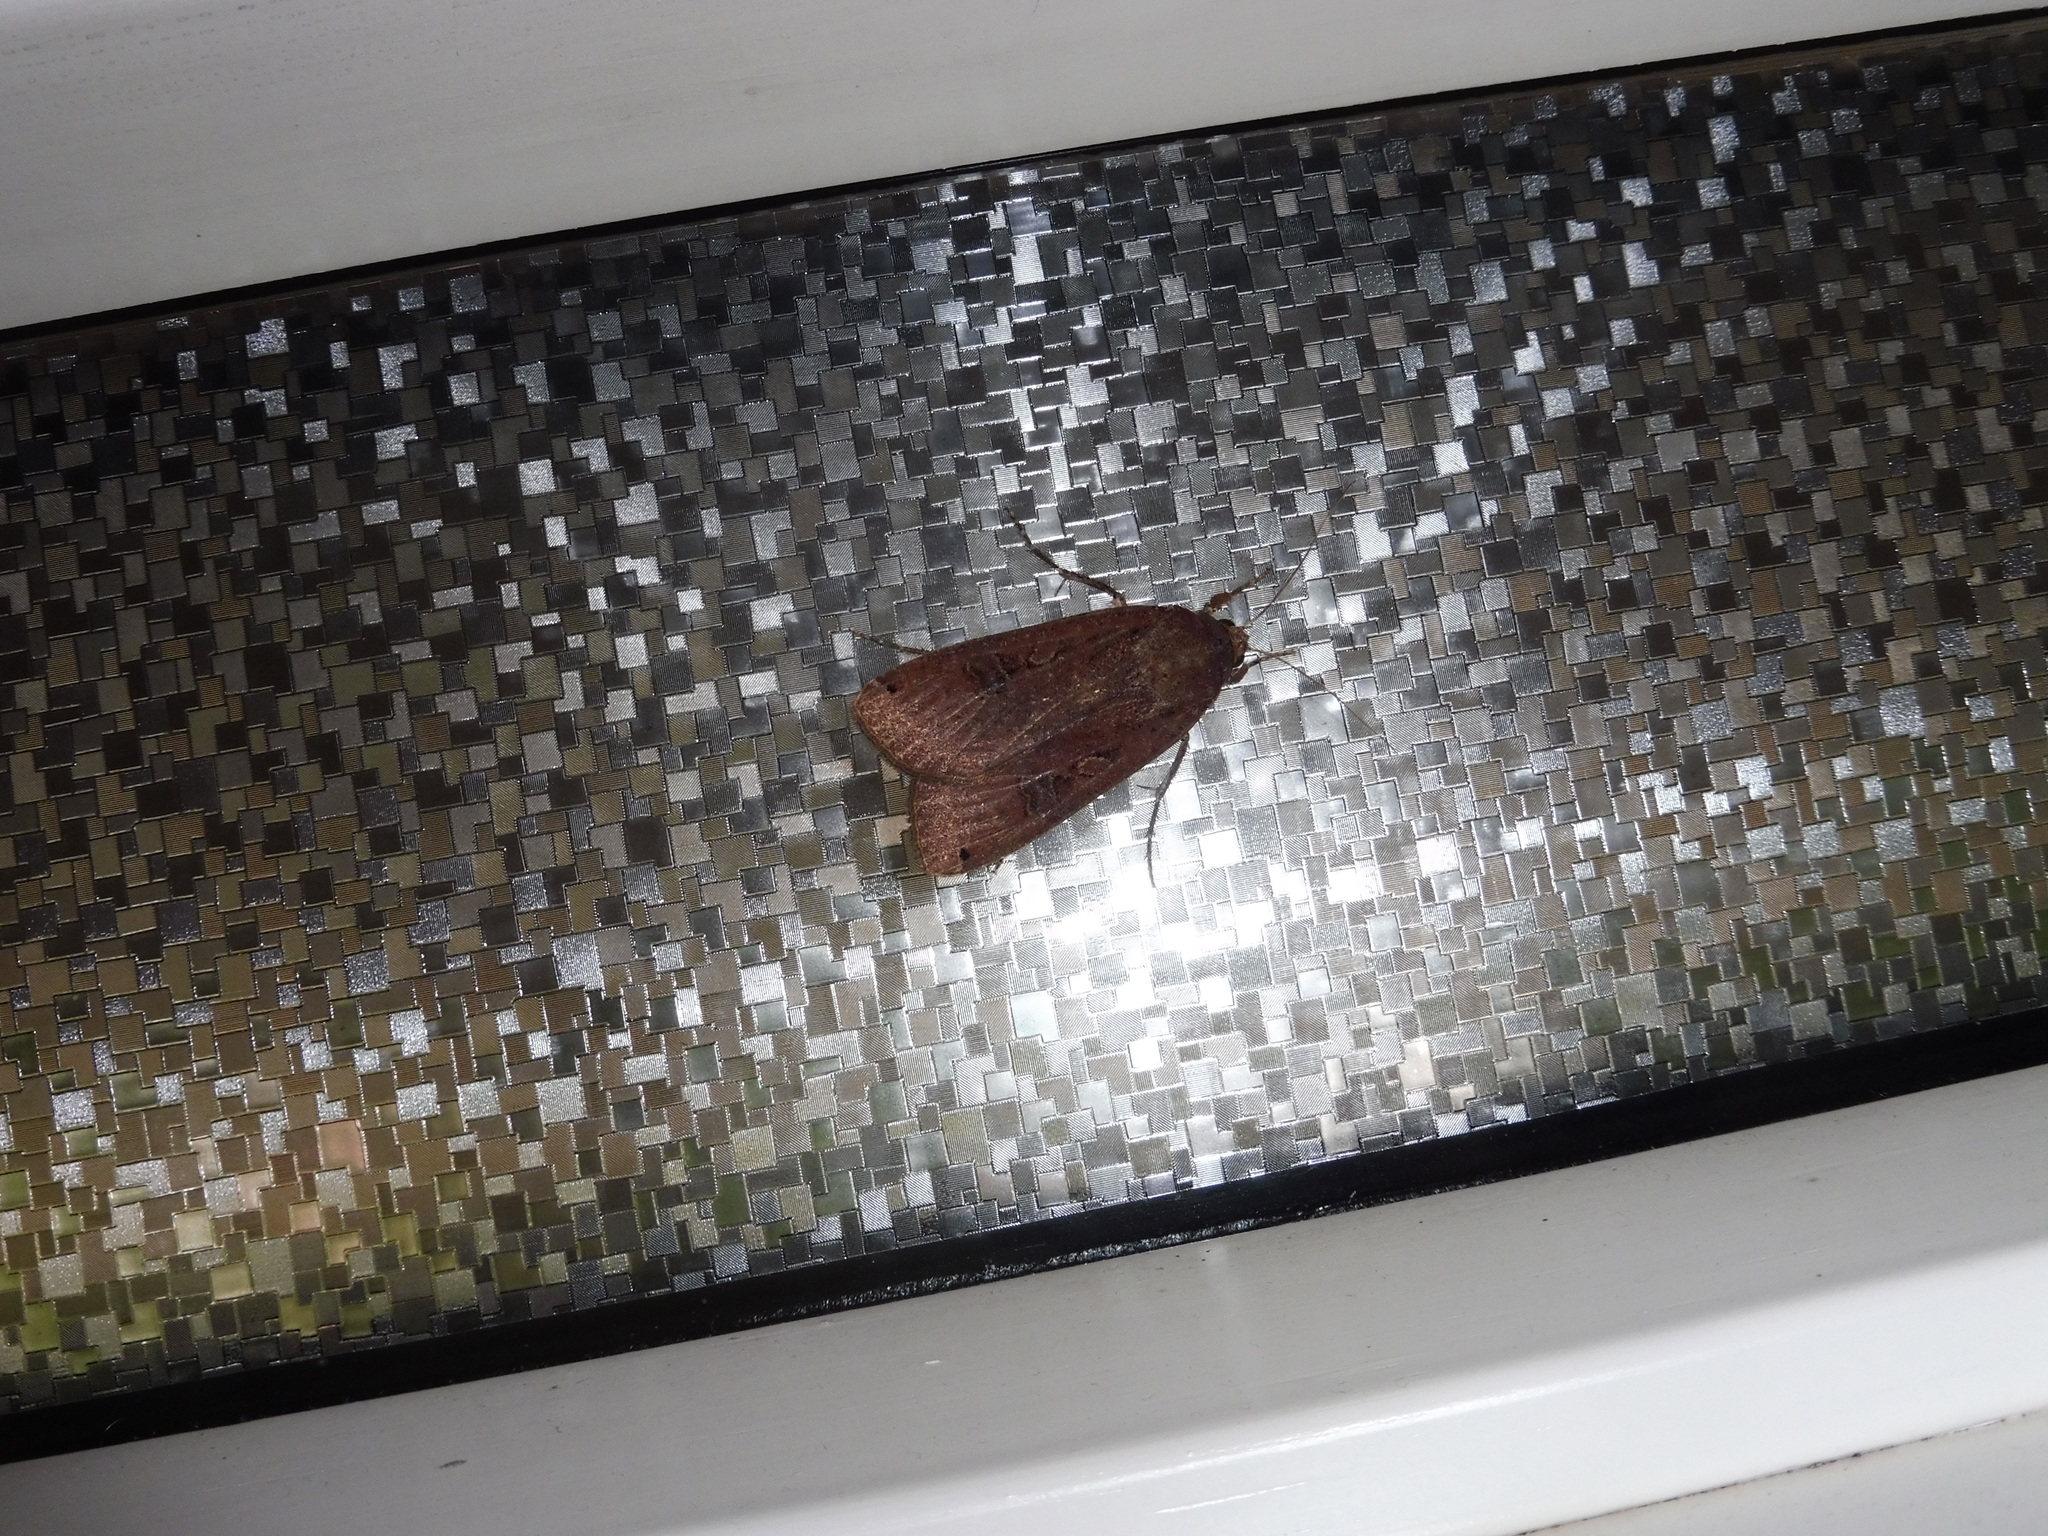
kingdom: Animalia
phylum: Arthropoda
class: Insecta
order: Lepidoptera
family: Noctuidae
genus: Noctua
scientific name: Noctua pronuba
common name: Large yellow underwing
